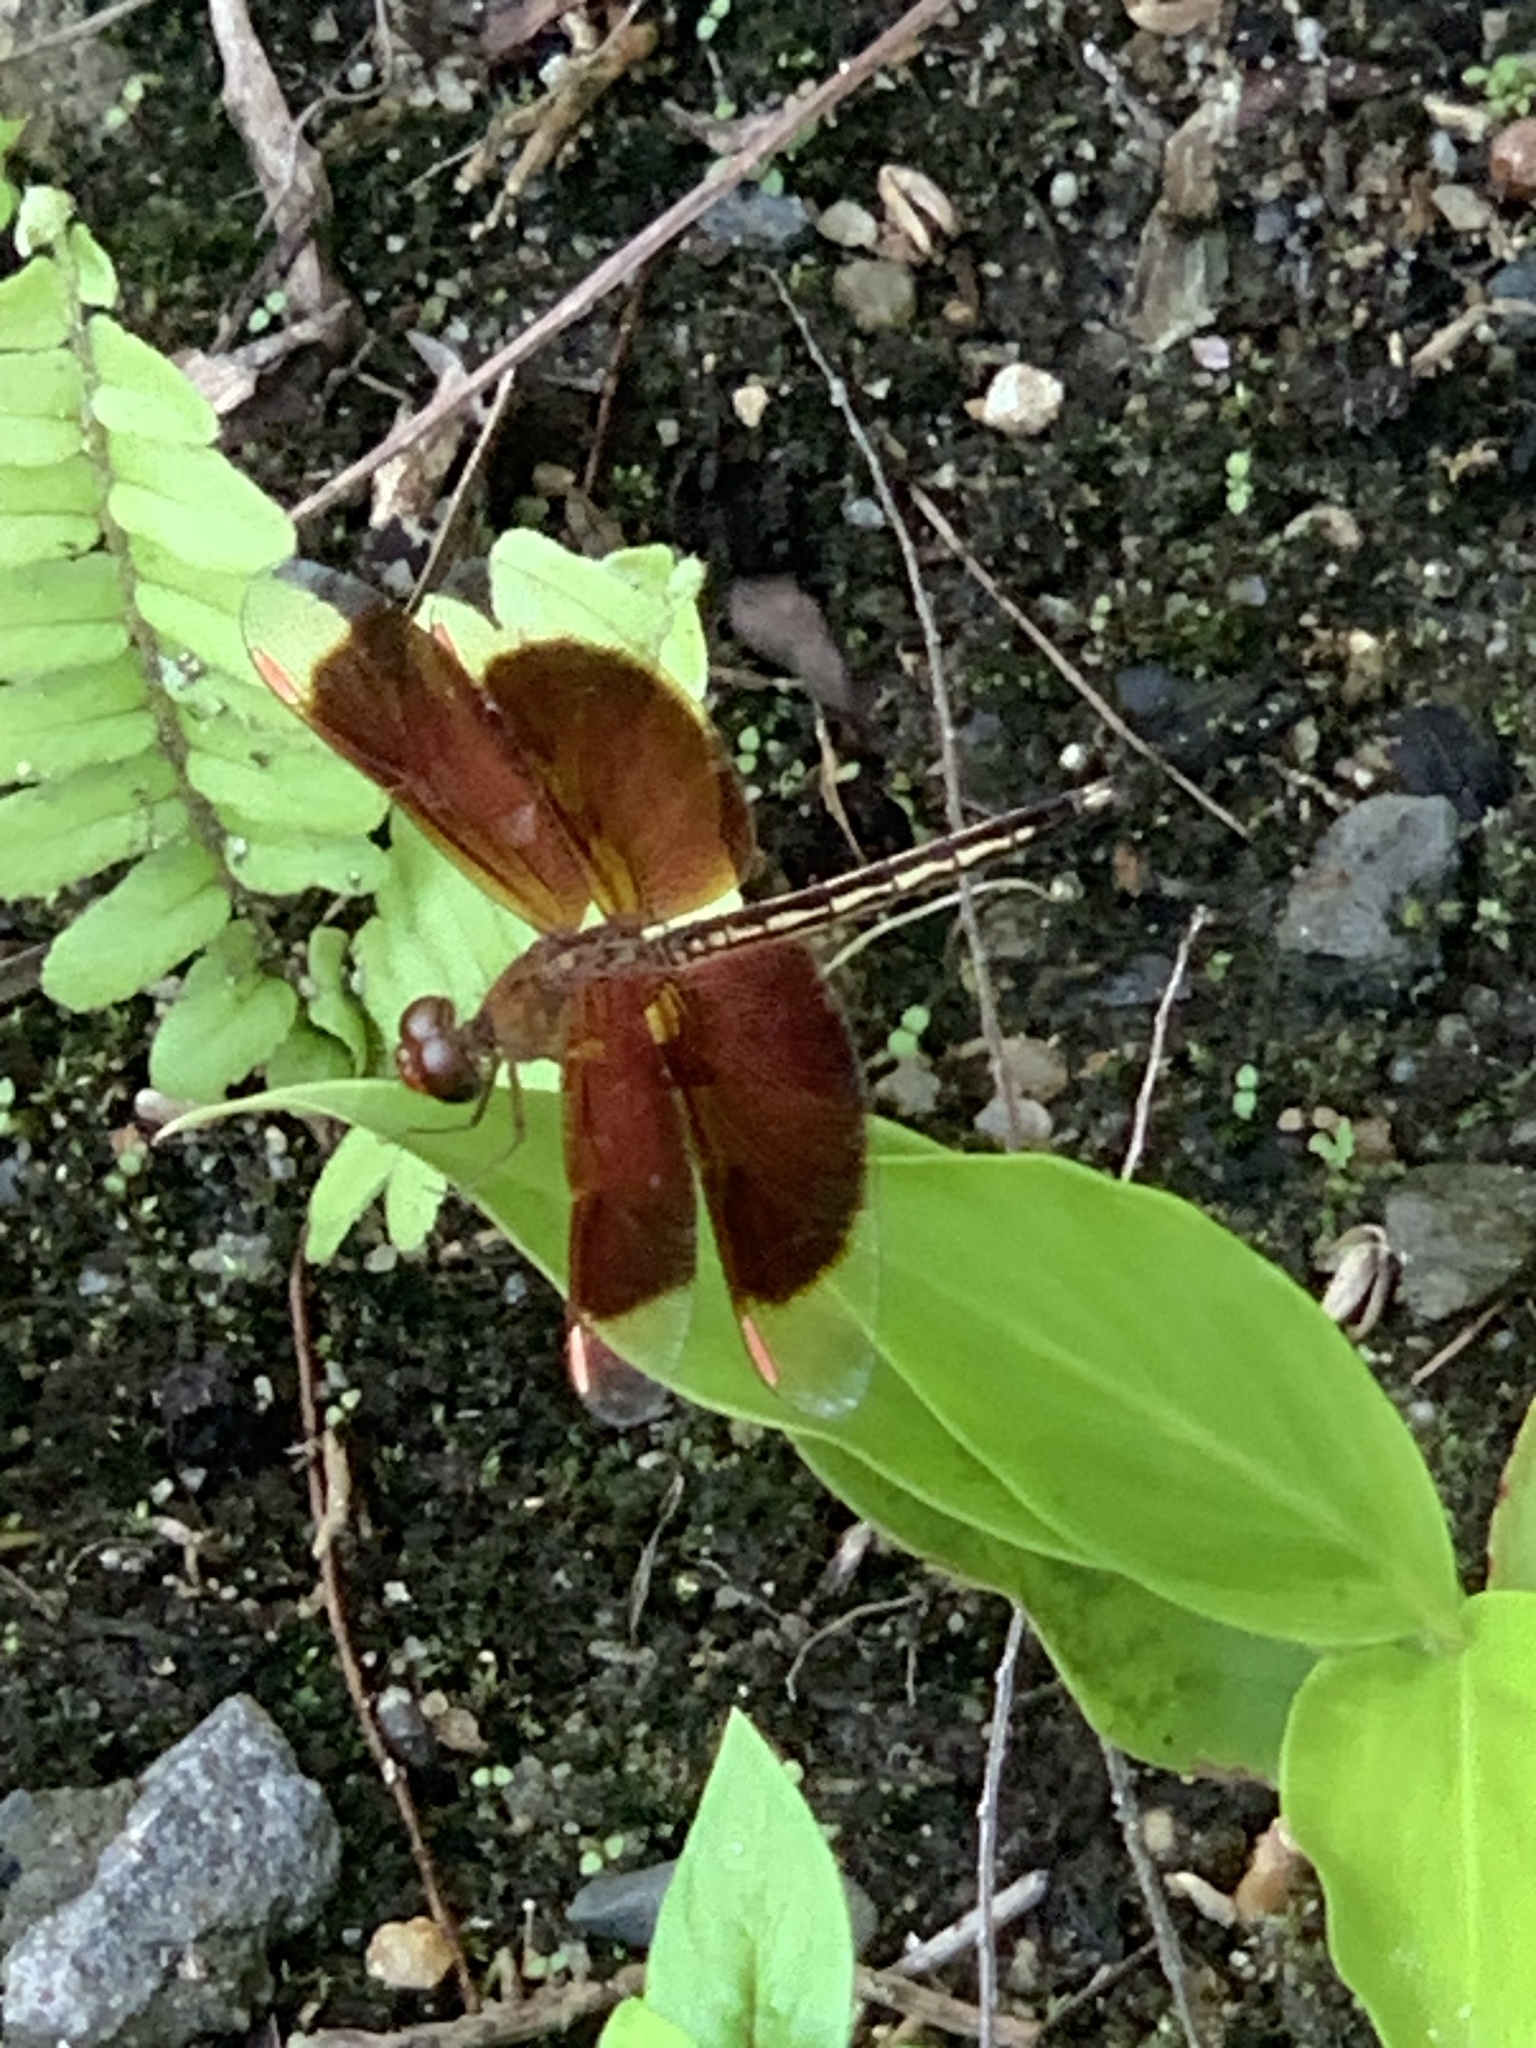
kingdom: Animalia
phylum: Arthropoda
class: Insecta
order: Odonata
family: Libellulidae
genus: Neurothemis
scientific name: Neurothemis stigmatizans
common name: Painted grasshawk
